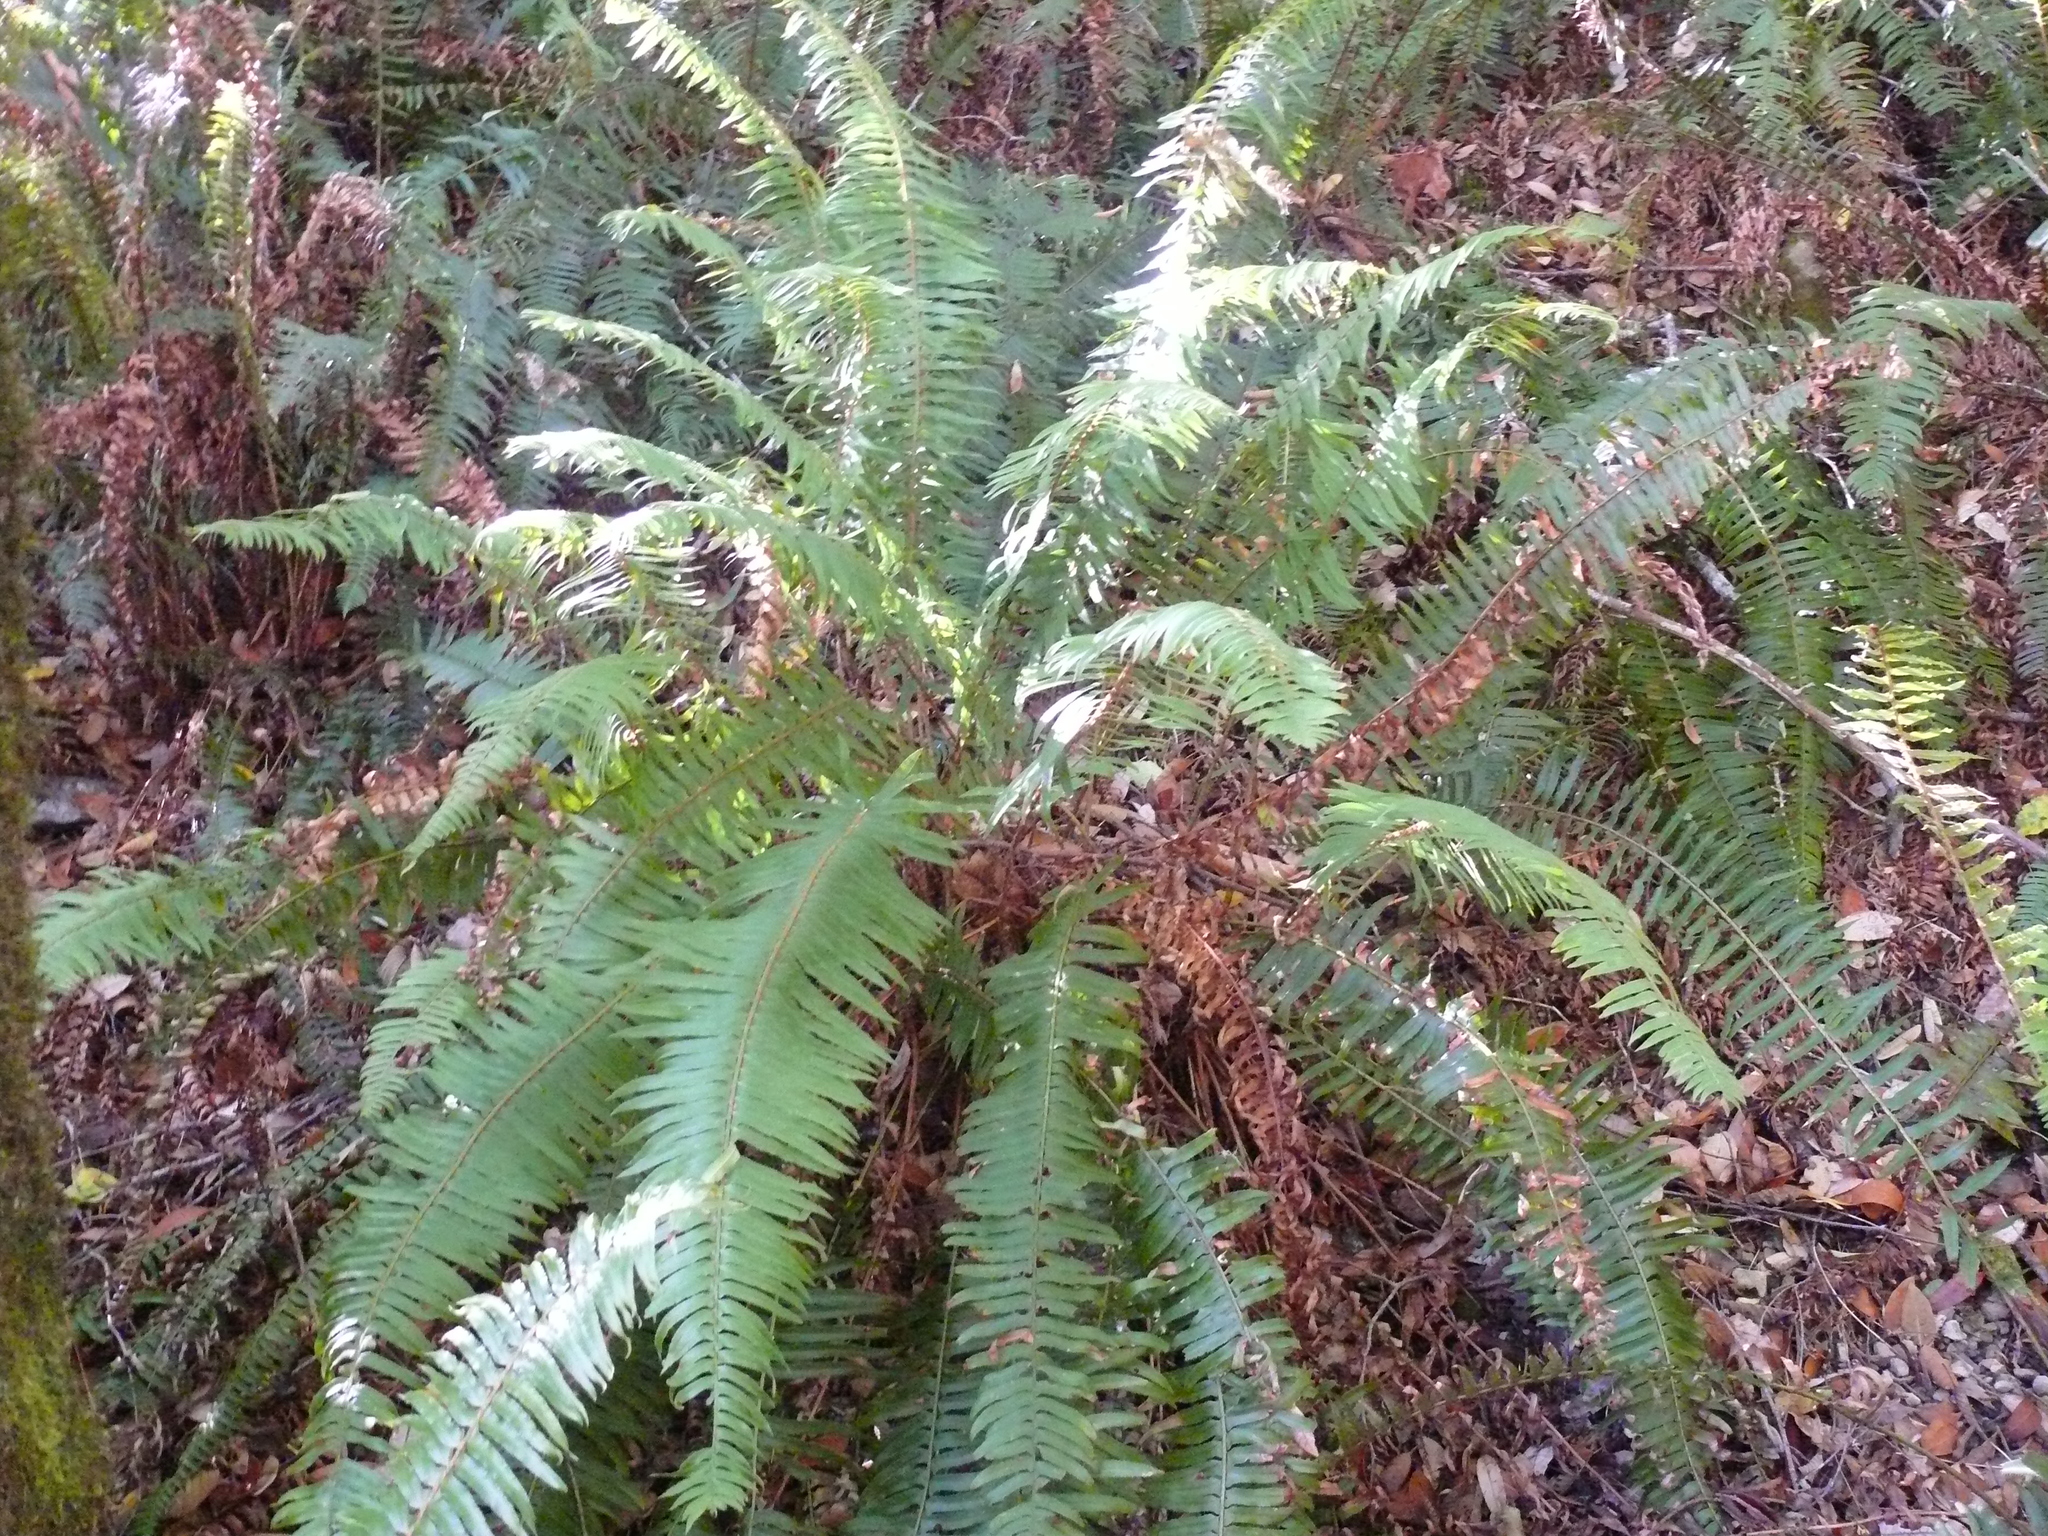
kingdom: Plantae
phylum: Tracheophyta
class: Polypodiopsida
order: Polypodiales
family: Dryopteridaceae
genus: Polystichum
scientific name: Polystichum munitum
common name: Western sword-fern
